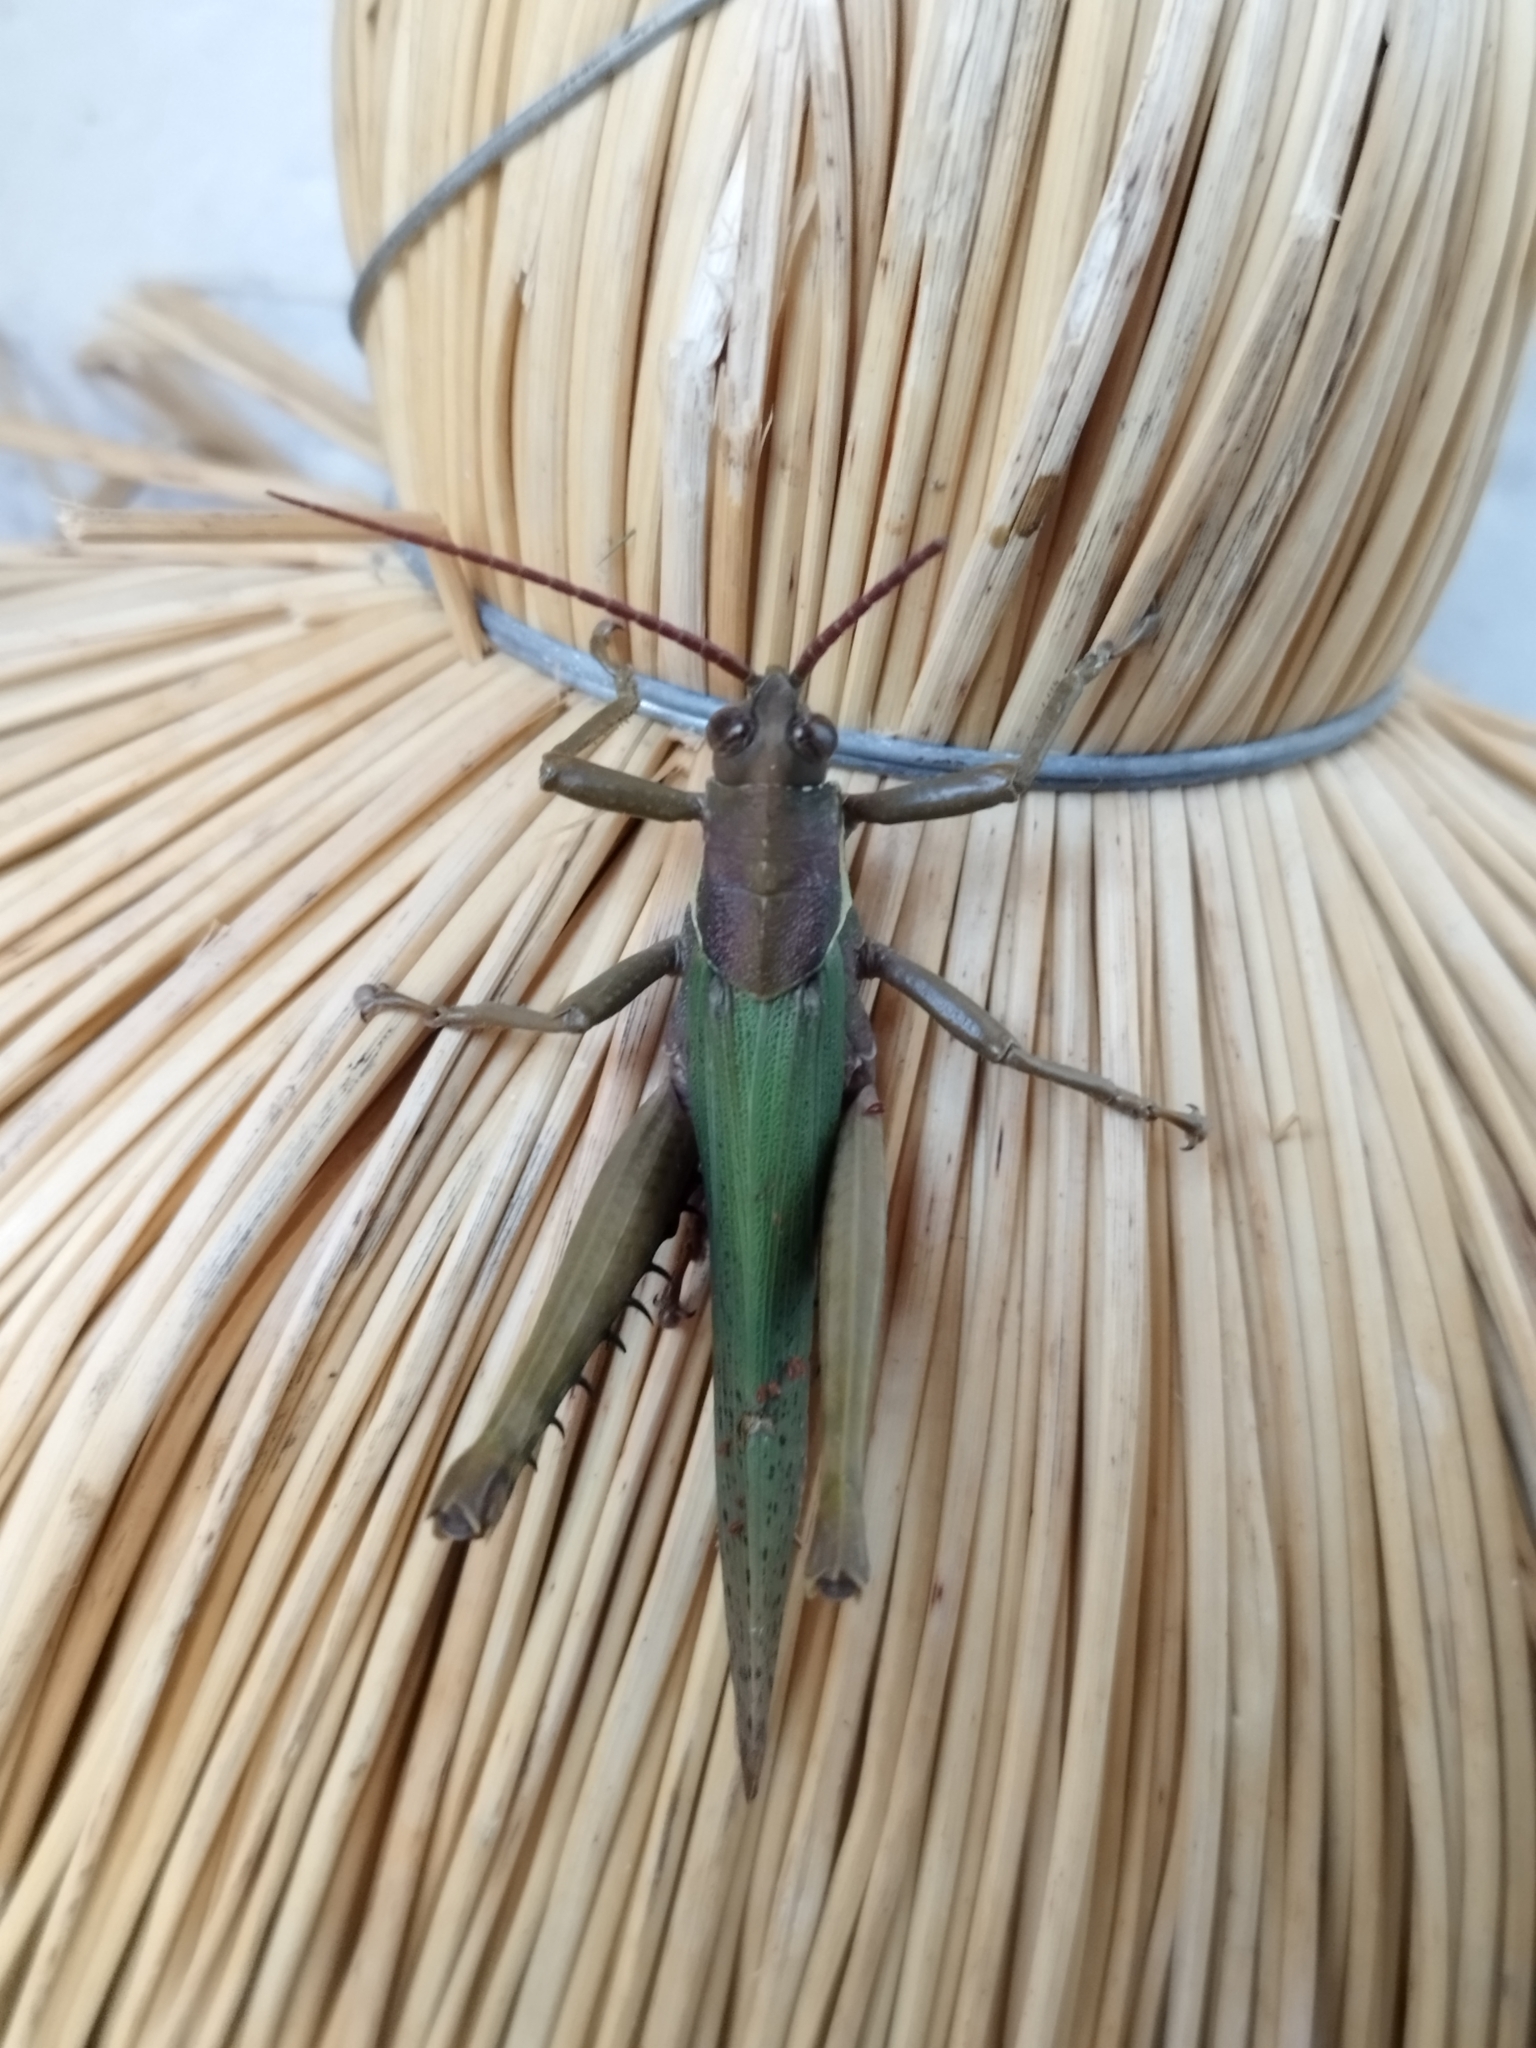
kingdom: Animalia
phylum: Arthropoda
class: Insecta
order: Orthoptera
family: Romaleidae
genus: Coryacris
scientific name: Coryacris angustipennis
